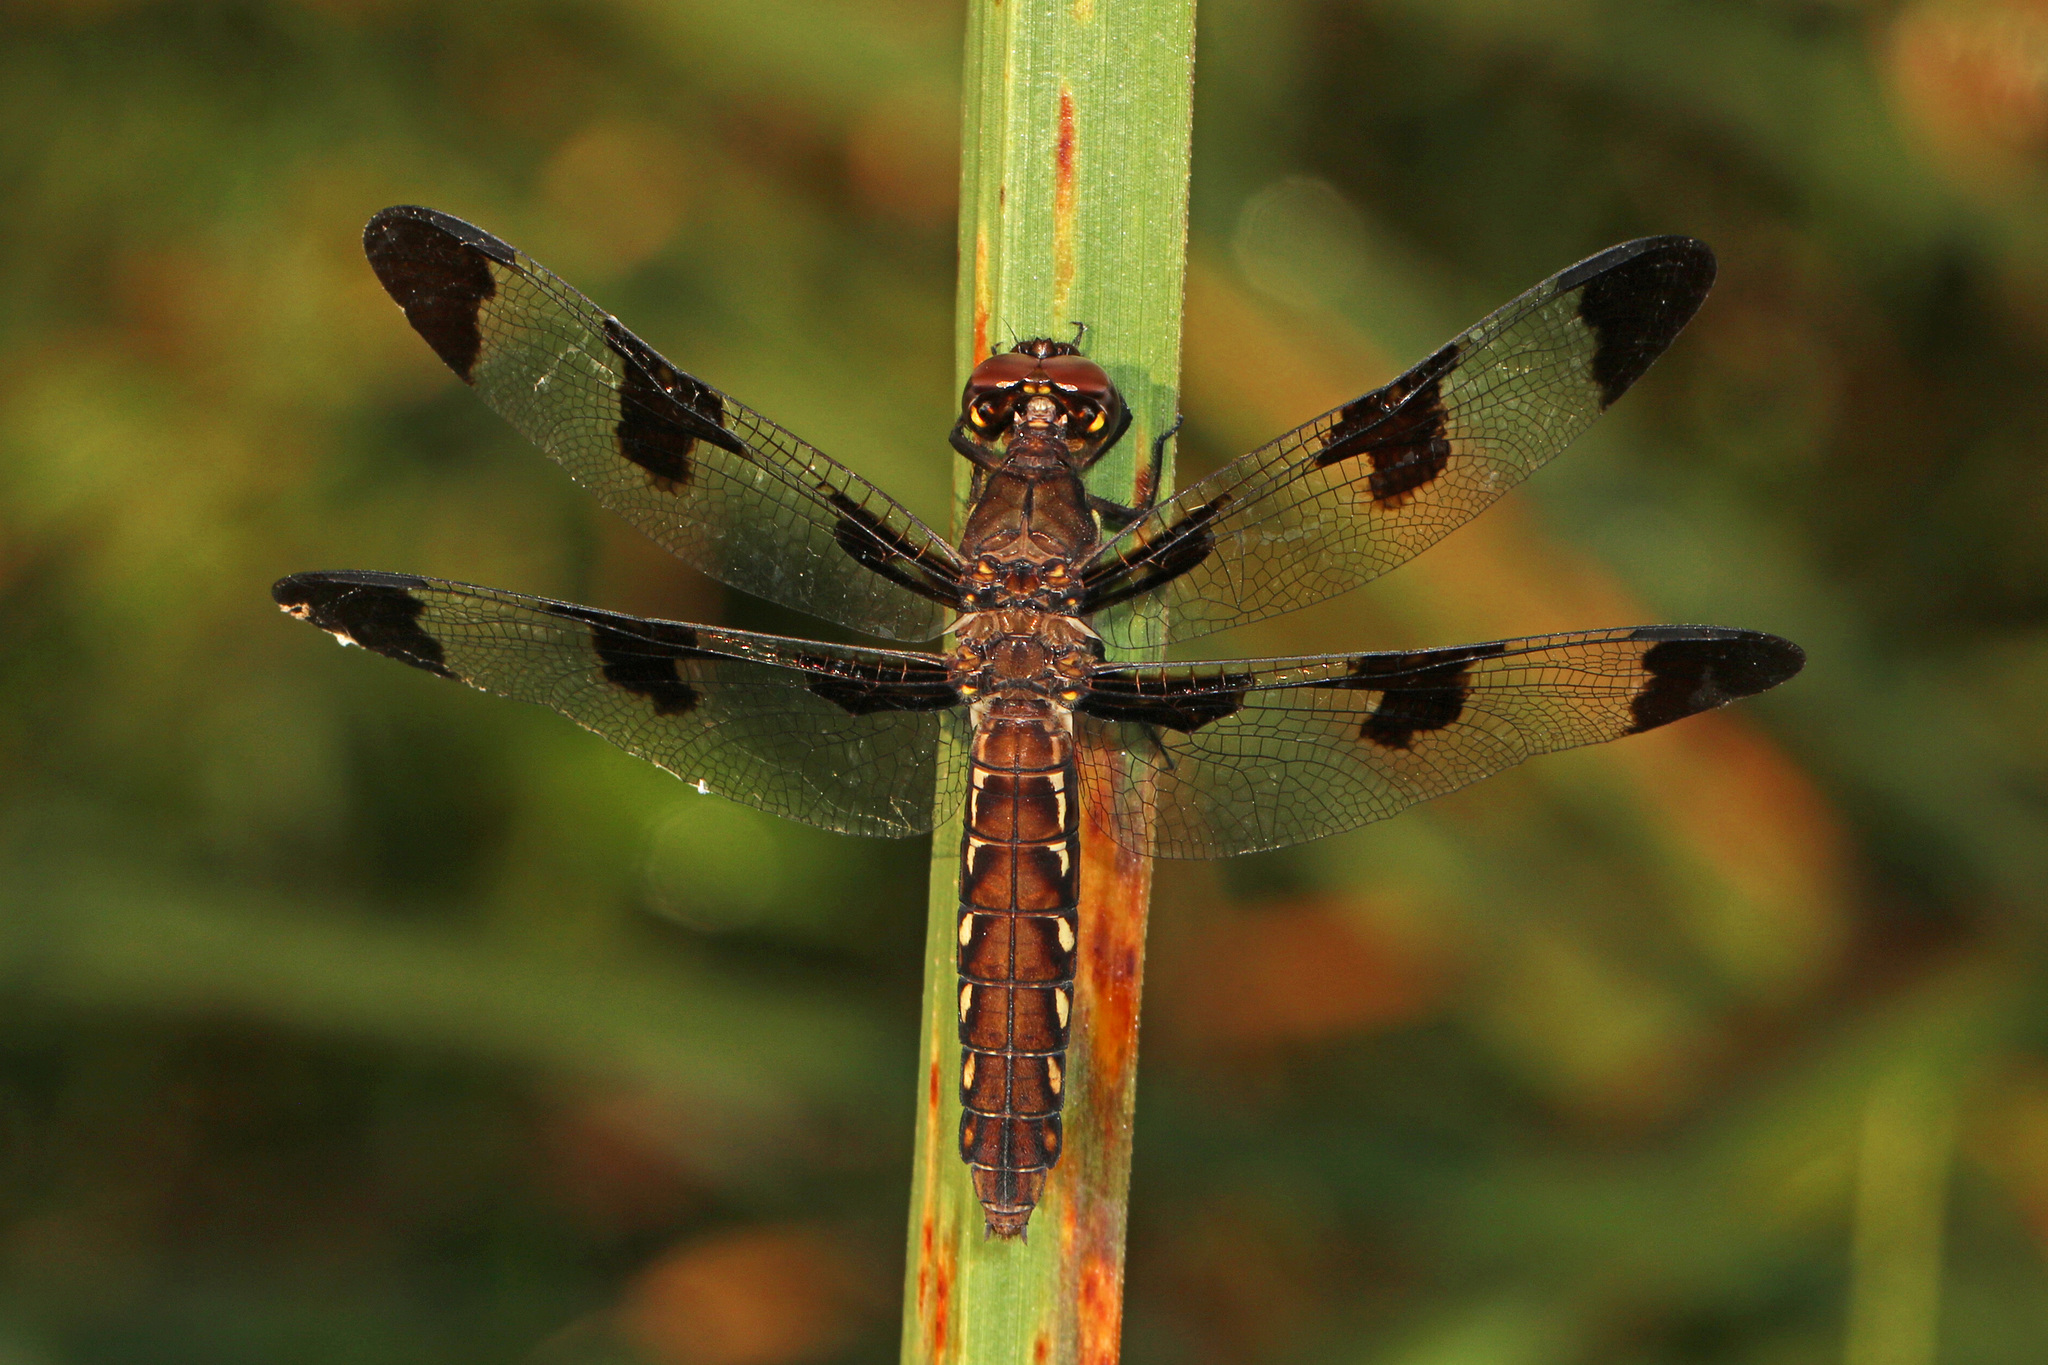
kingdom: Animalia
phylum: Arthropoda
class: Insecta
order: Odonata
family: Libellulidae
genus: Plathemis
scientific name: Plathemis lydia
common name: Common whitetail
